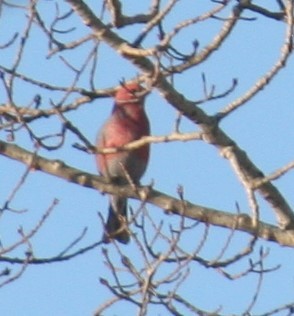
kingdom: Animalia
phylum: Chordata
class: Aves
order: Passeriformes
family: Fringillidae
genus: Pinicola
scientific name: Pinicola enucleator
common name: Pine grosbeak
